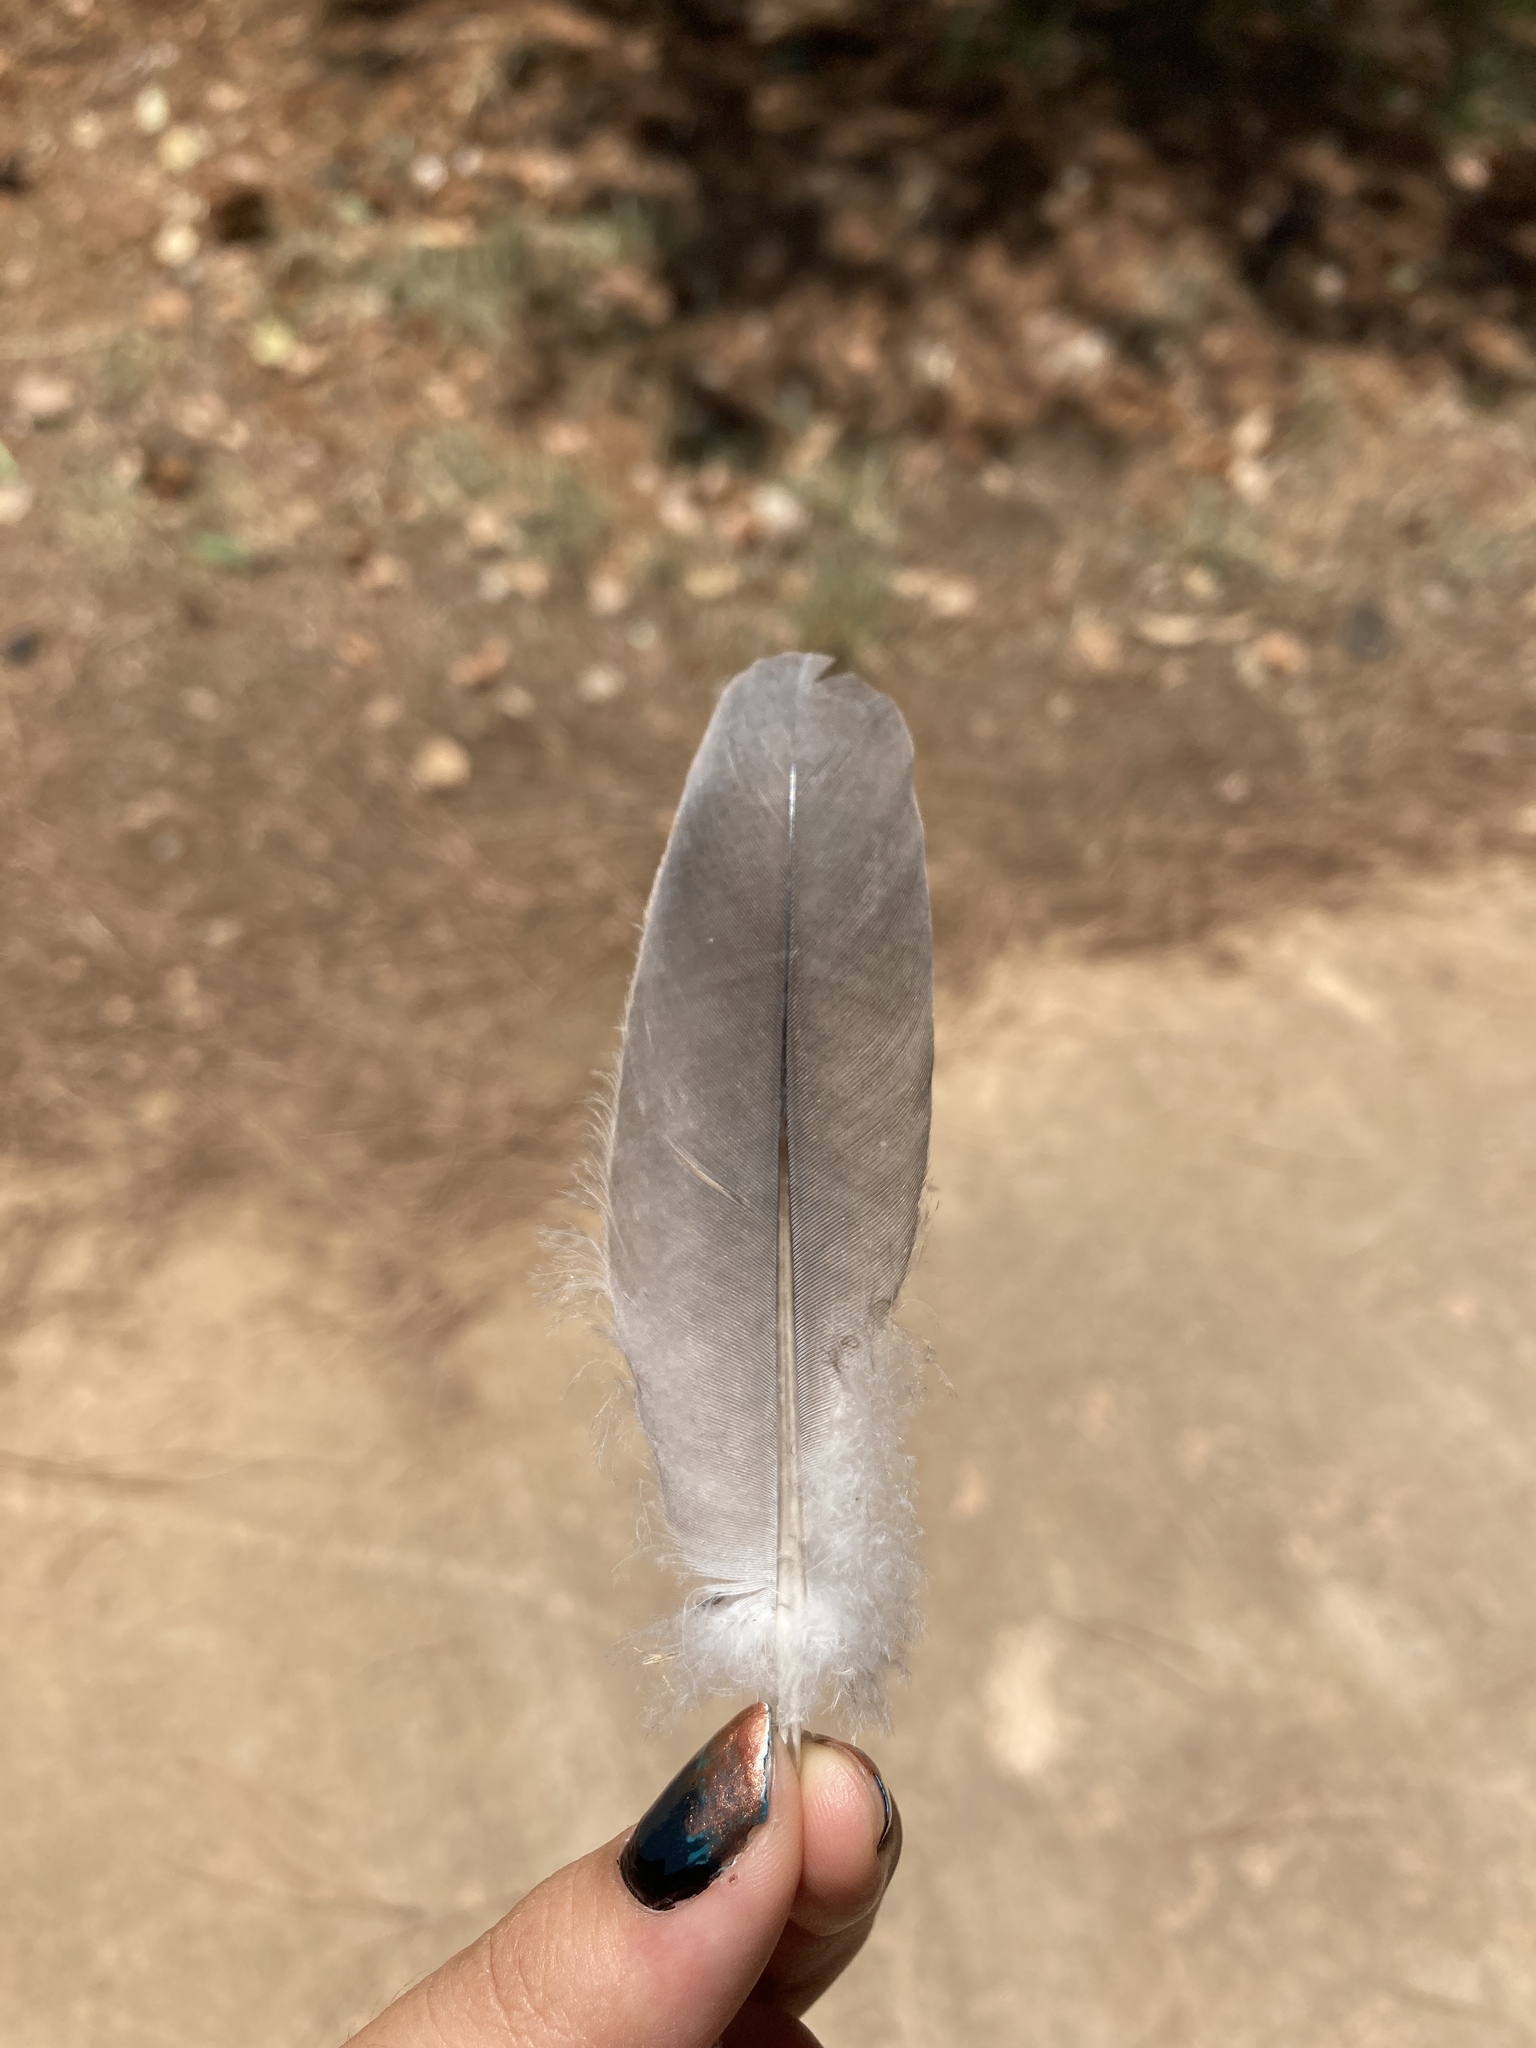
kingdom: Animalia
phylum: Chordata
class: Aves
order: Columbiformes
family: Columbidae
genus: Columba
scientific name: Columba palumbus
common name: Common wood pigeon
